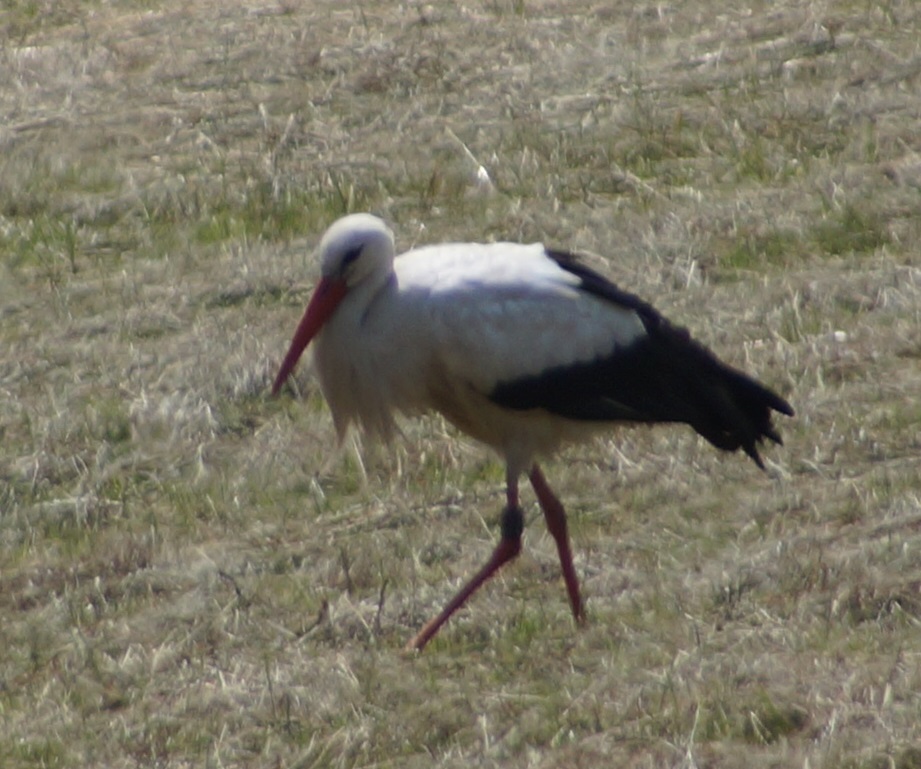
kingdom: Animalia
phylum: Chordata
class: Aves
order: Ciconiiformes
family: Ciconiidae
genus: Ciconia
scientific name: Ciconia ciconia
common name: White stork
